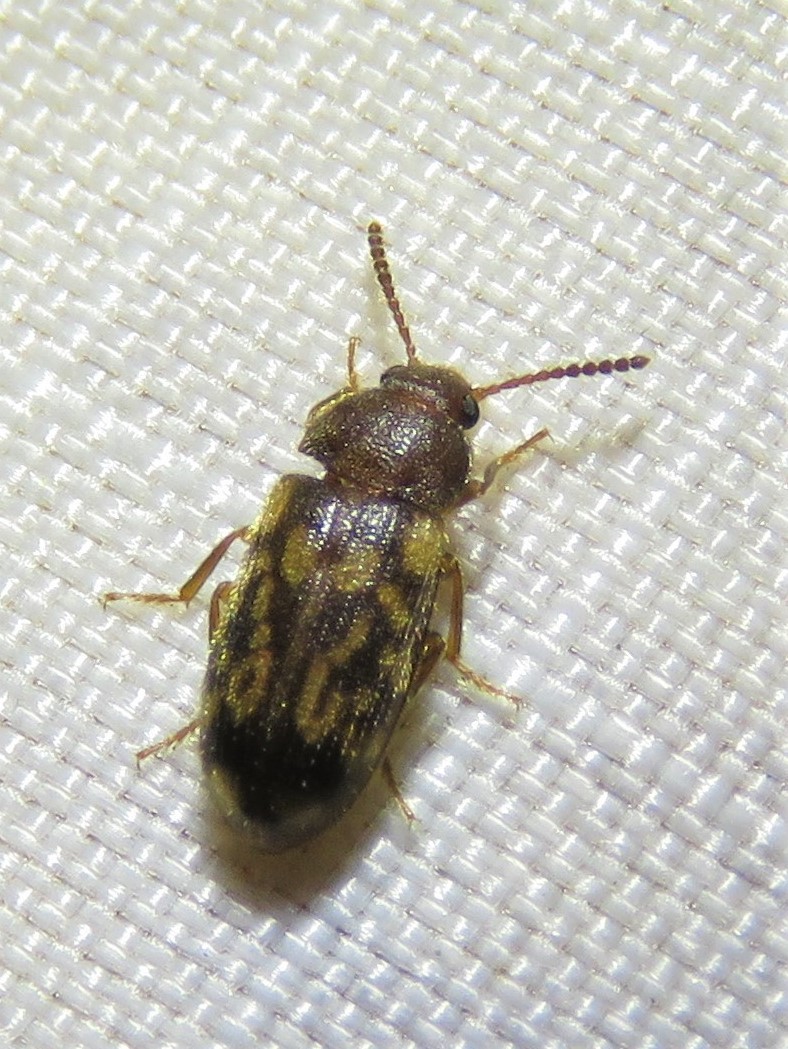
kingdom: Animalia
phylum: Arthropoda
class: Insecta
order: Coleoptera
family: Mycetophagidae
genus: Mycetophagus
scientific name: Mycetophagus pluripunctatus
